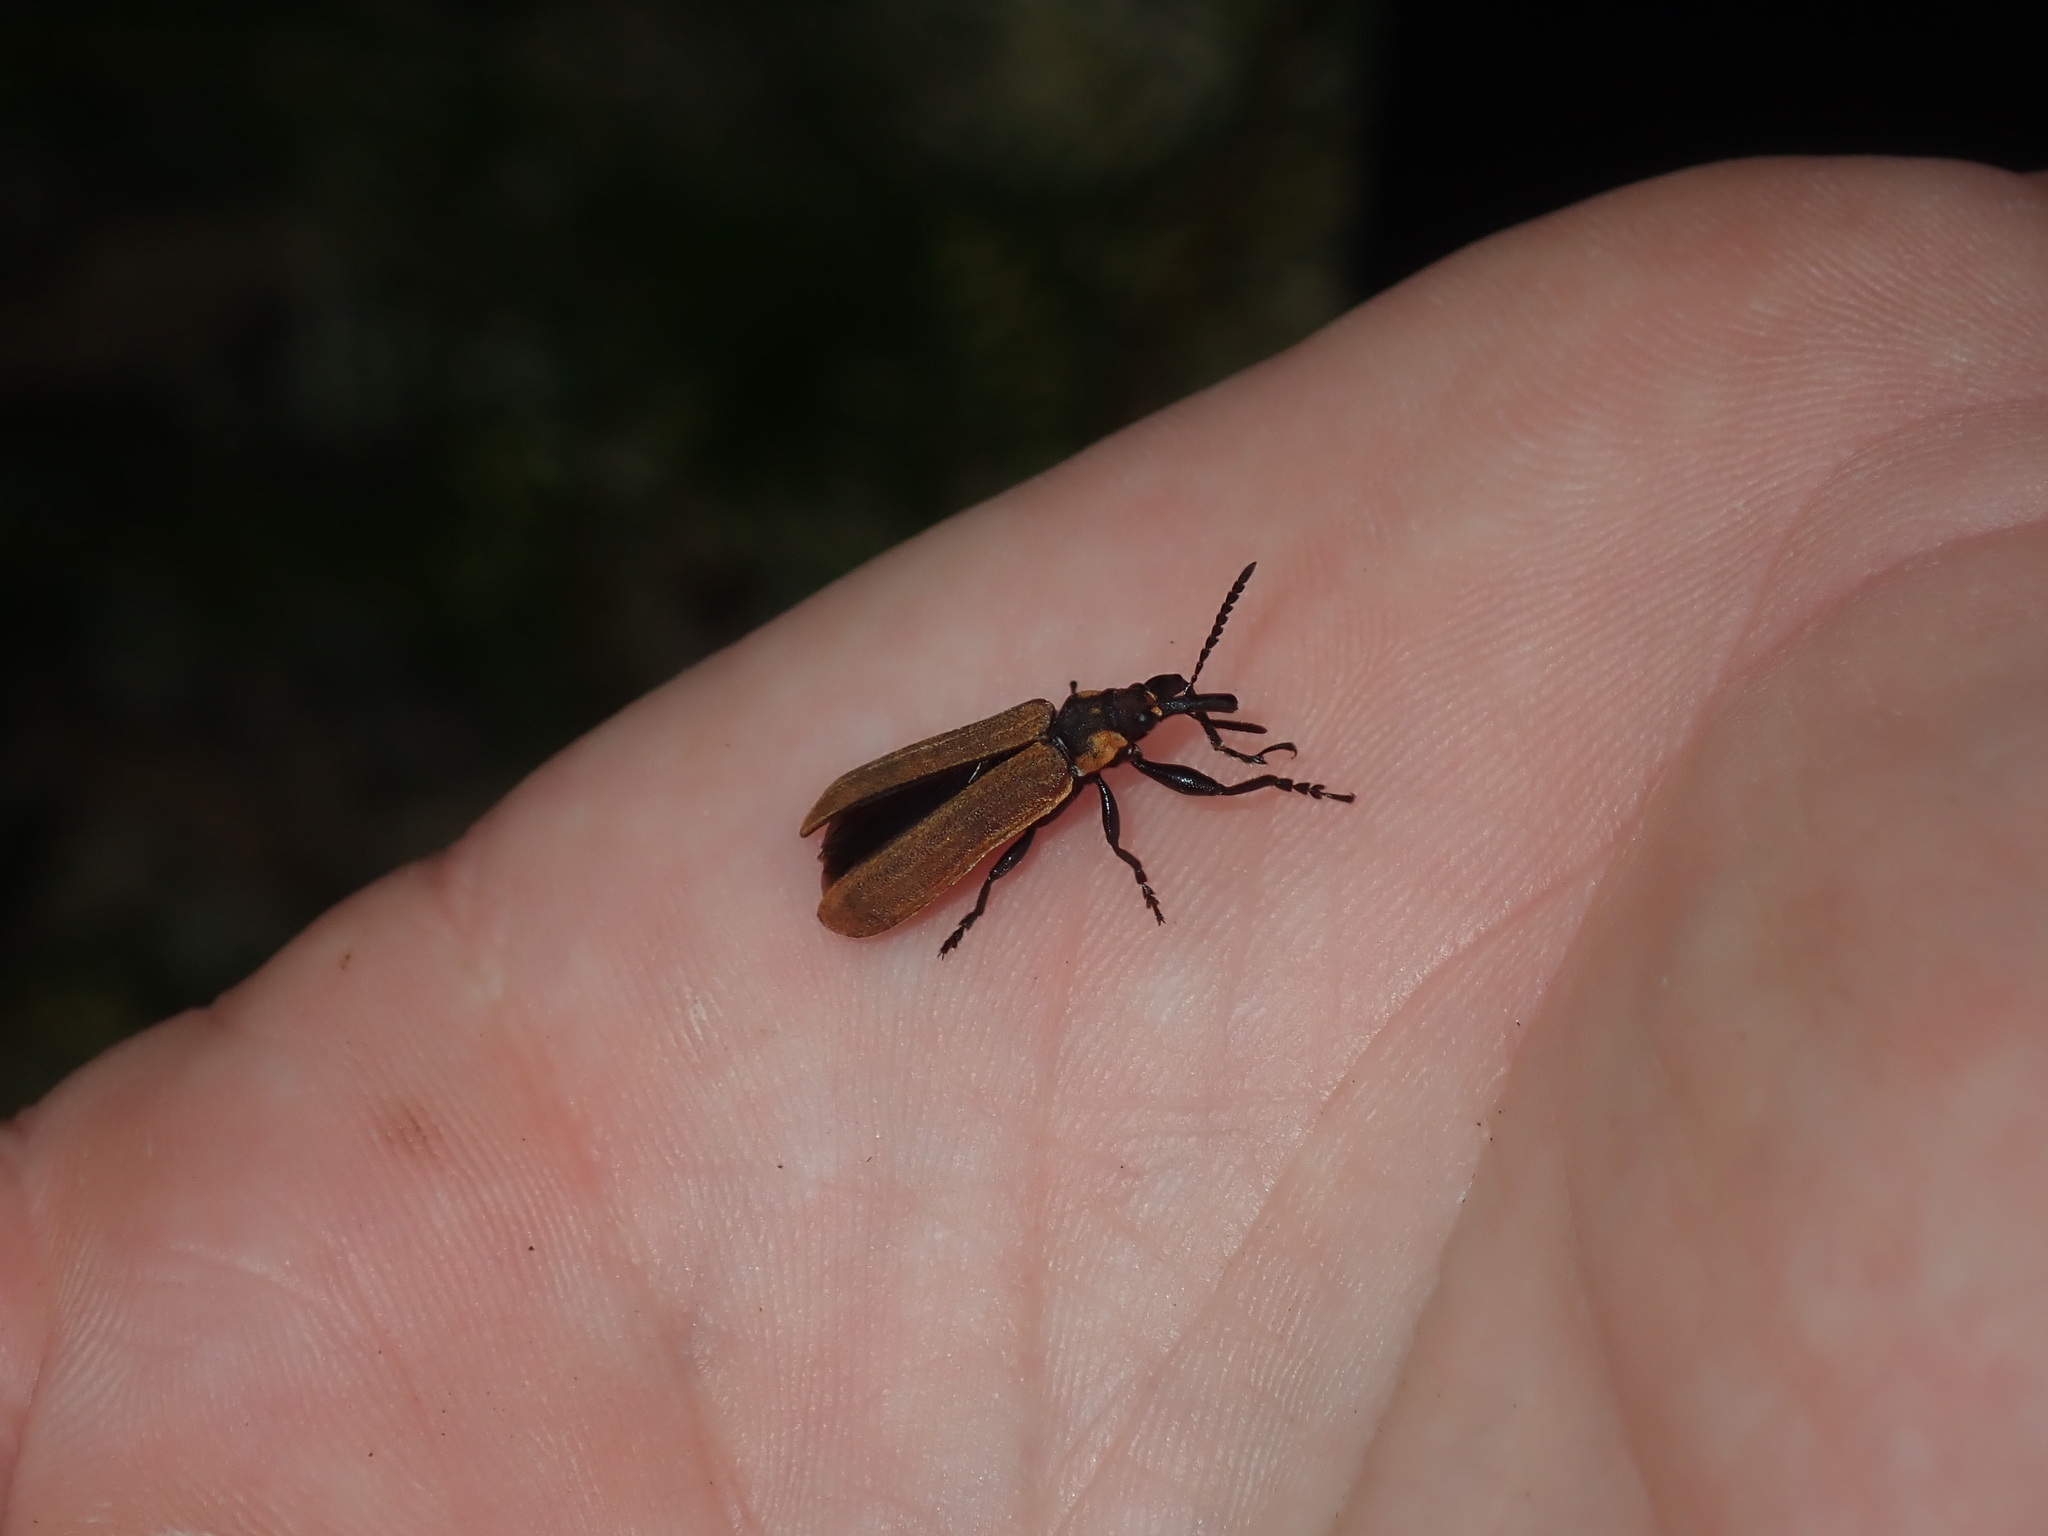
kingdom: Animalia
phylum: Arthropoda
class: Insecta
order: Coleoptera
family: Belidae
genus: Rhinotia
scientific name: Rhinotia haemoptera
